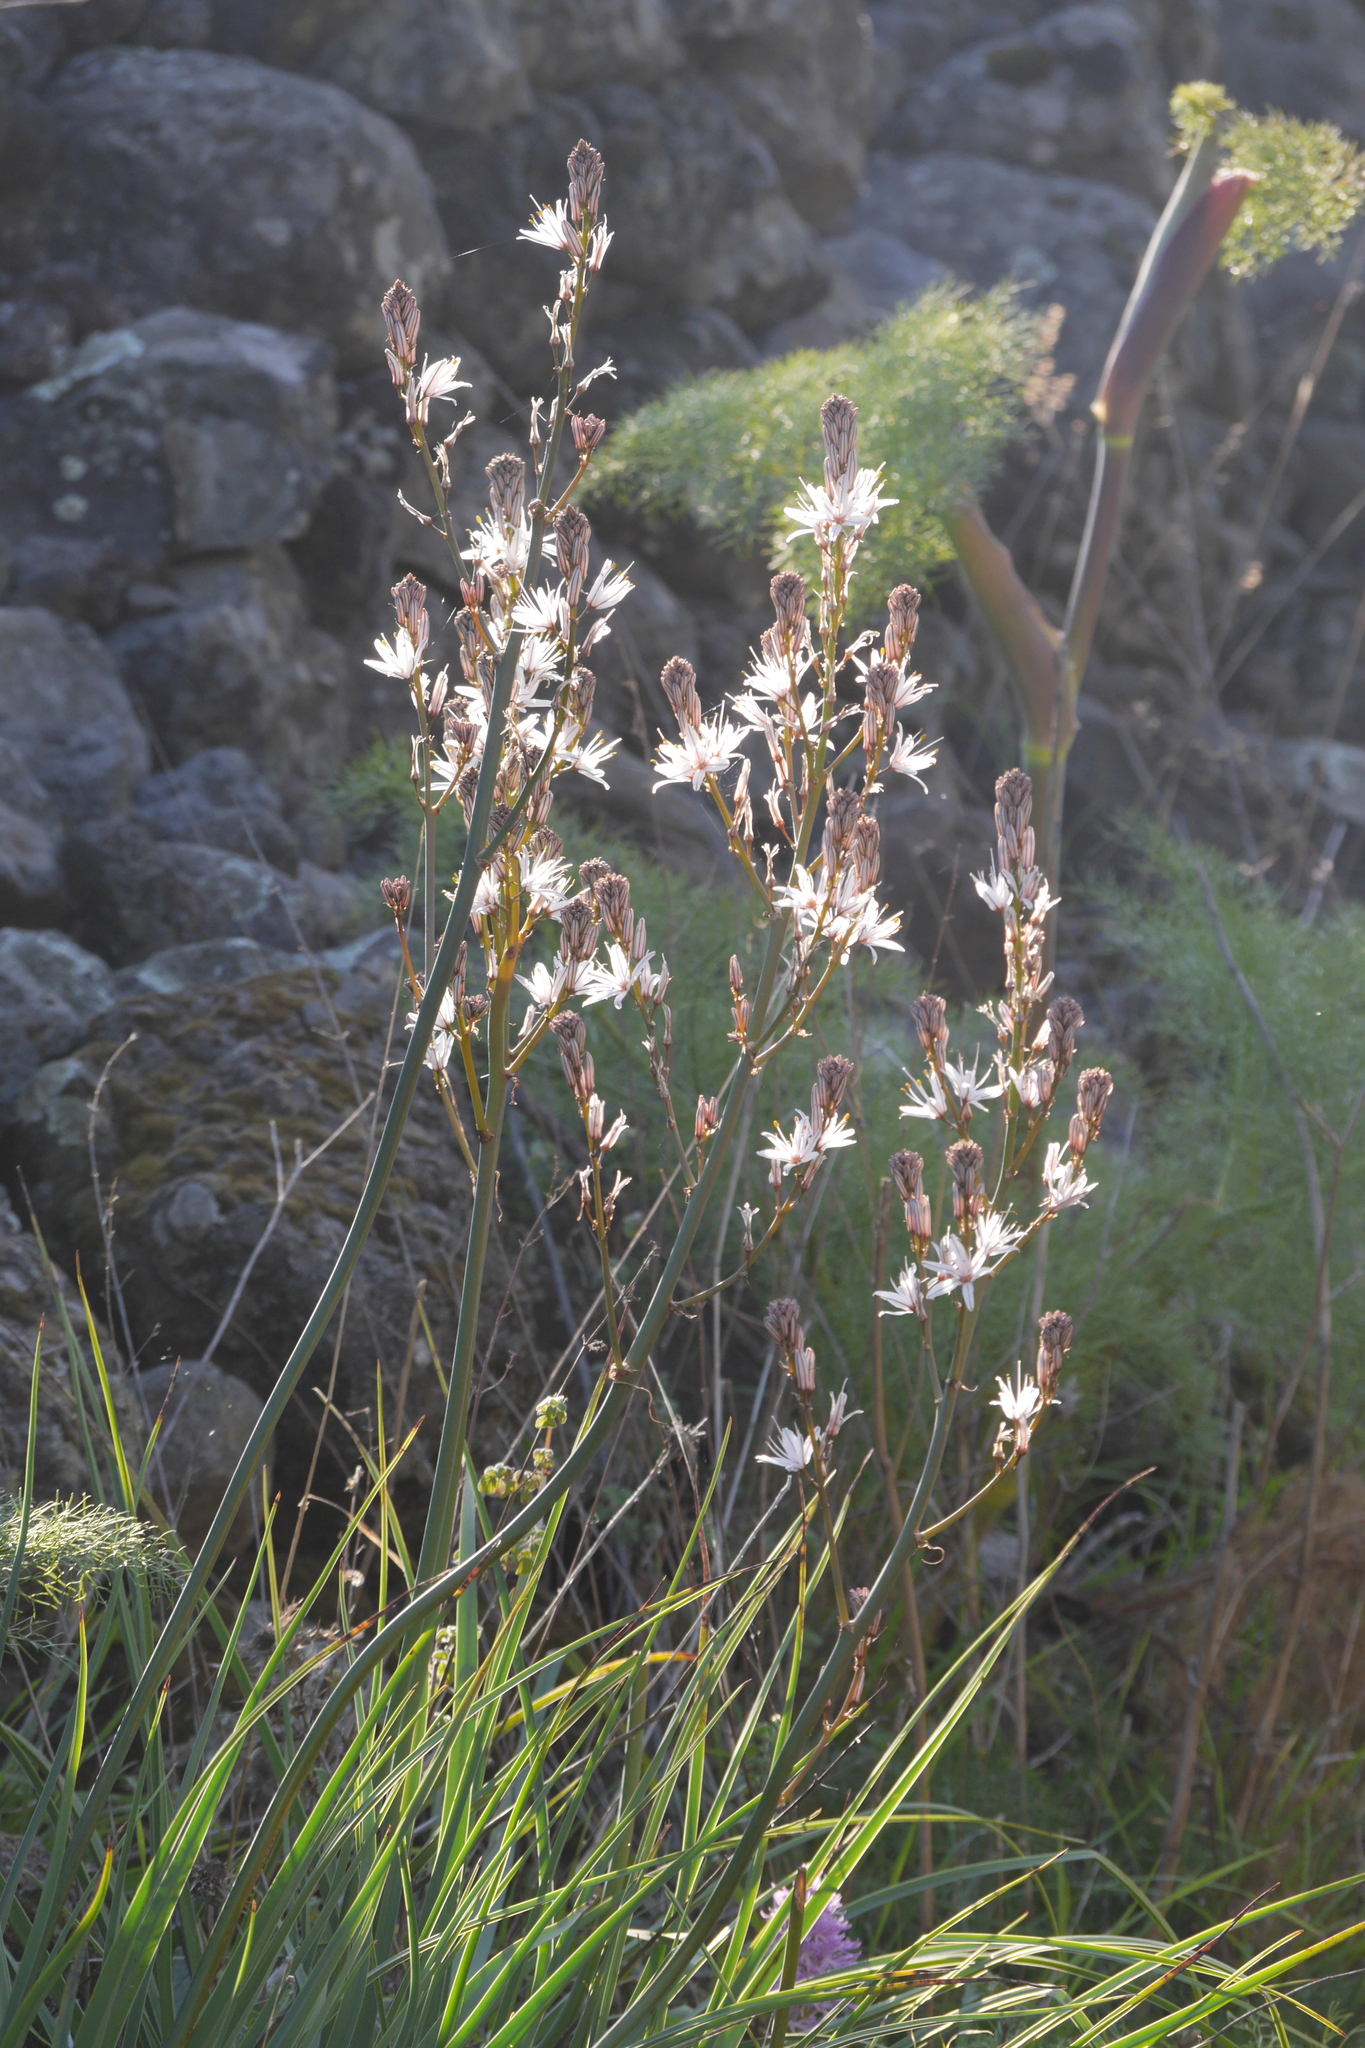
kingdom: Plantae
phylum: Tracheophyta
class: Liliopsida
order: Asparagales
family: Asphodelaceae
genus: Asphodelus
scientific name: Asphodelus ramosus
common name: Silverrod
